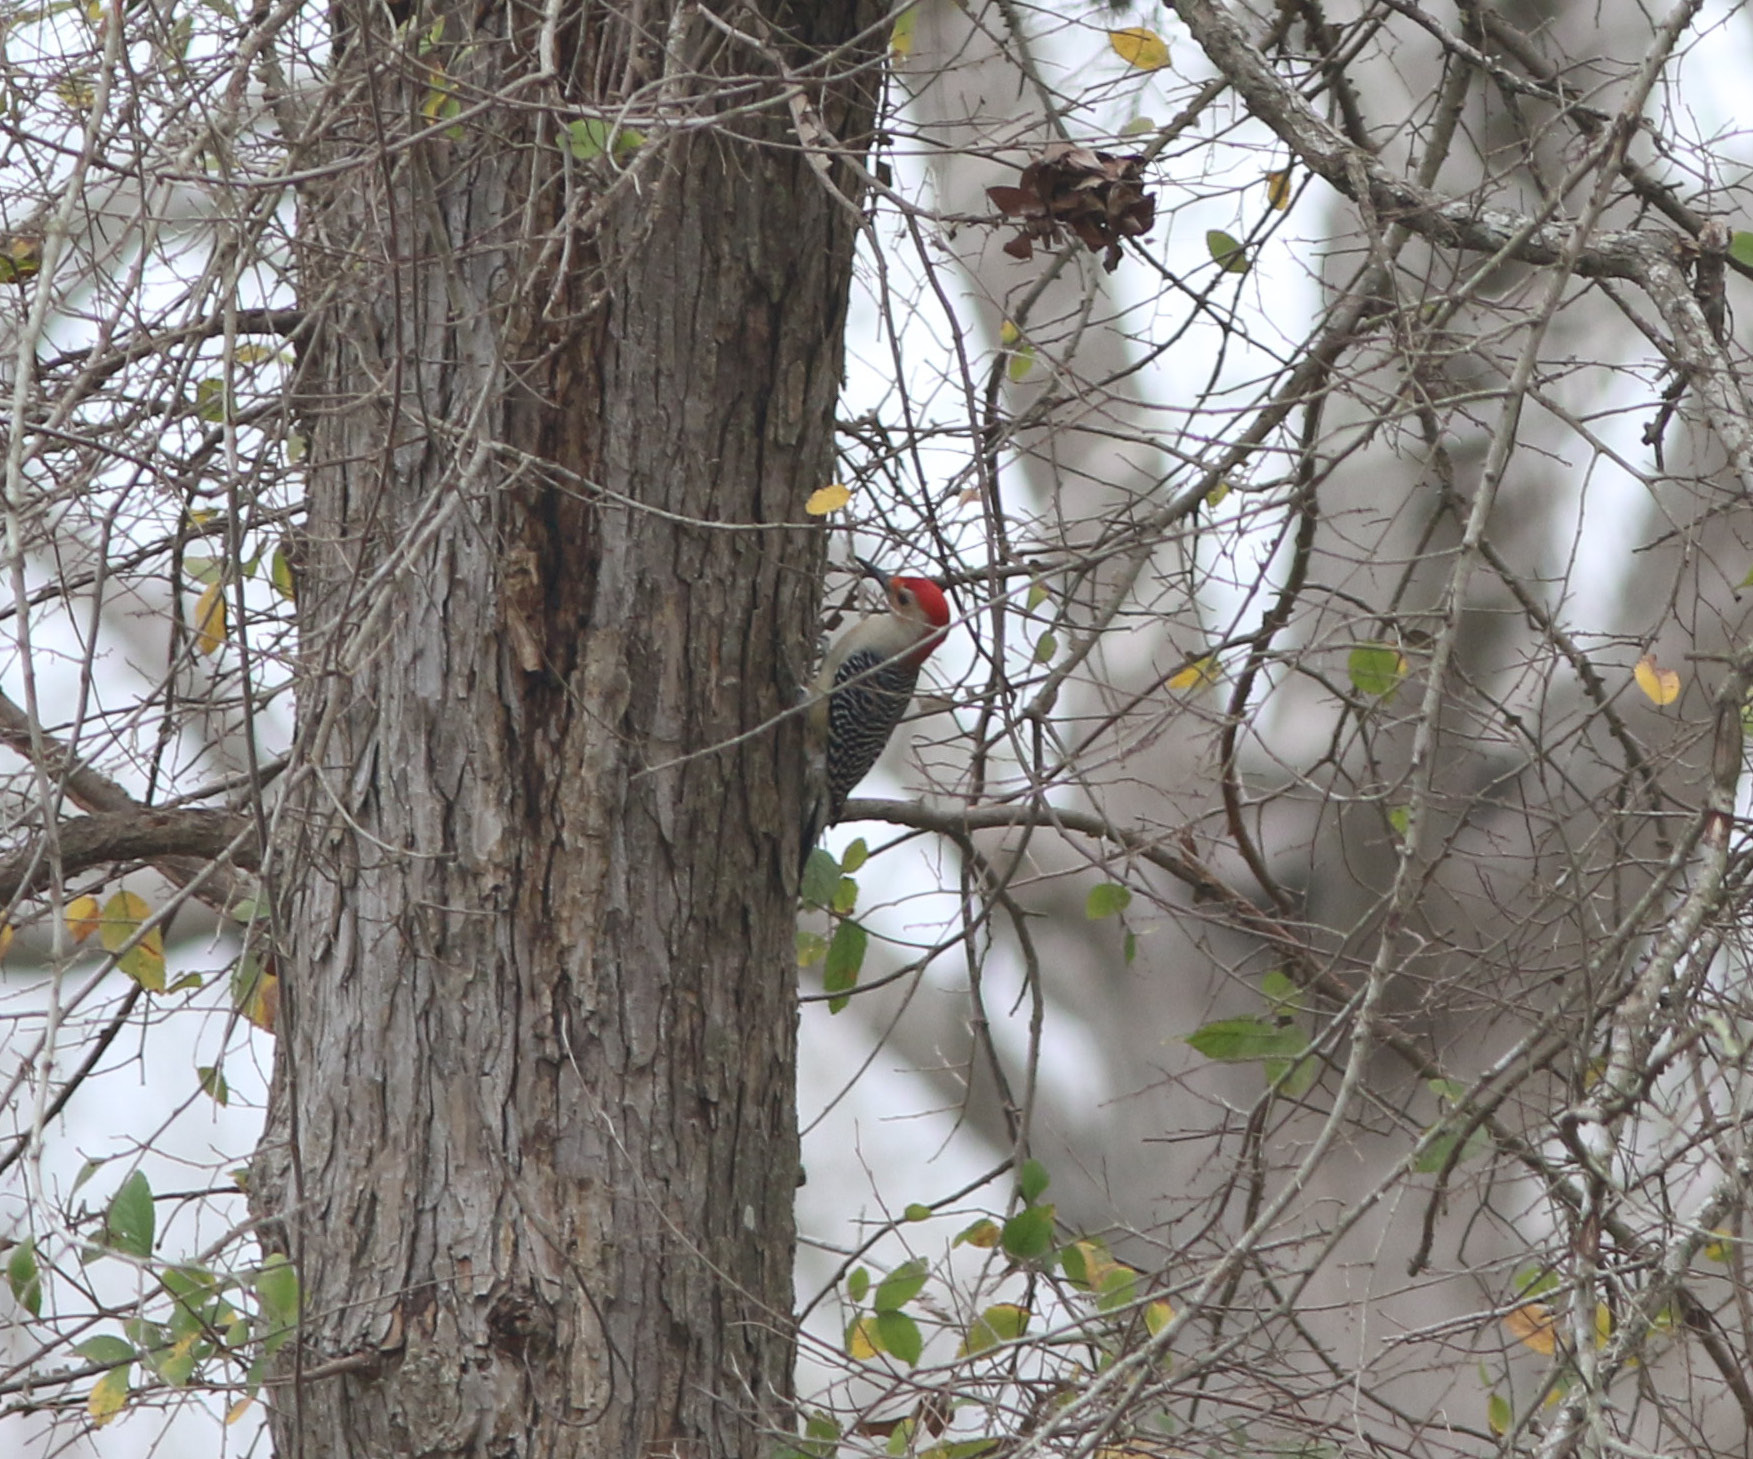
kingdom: Animalia
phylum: Chordata
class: Aves
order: Piciformes
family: Picidae
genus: Melanerpes
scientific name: Melanerpes carolinus
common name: Red-bellied woodpecker
